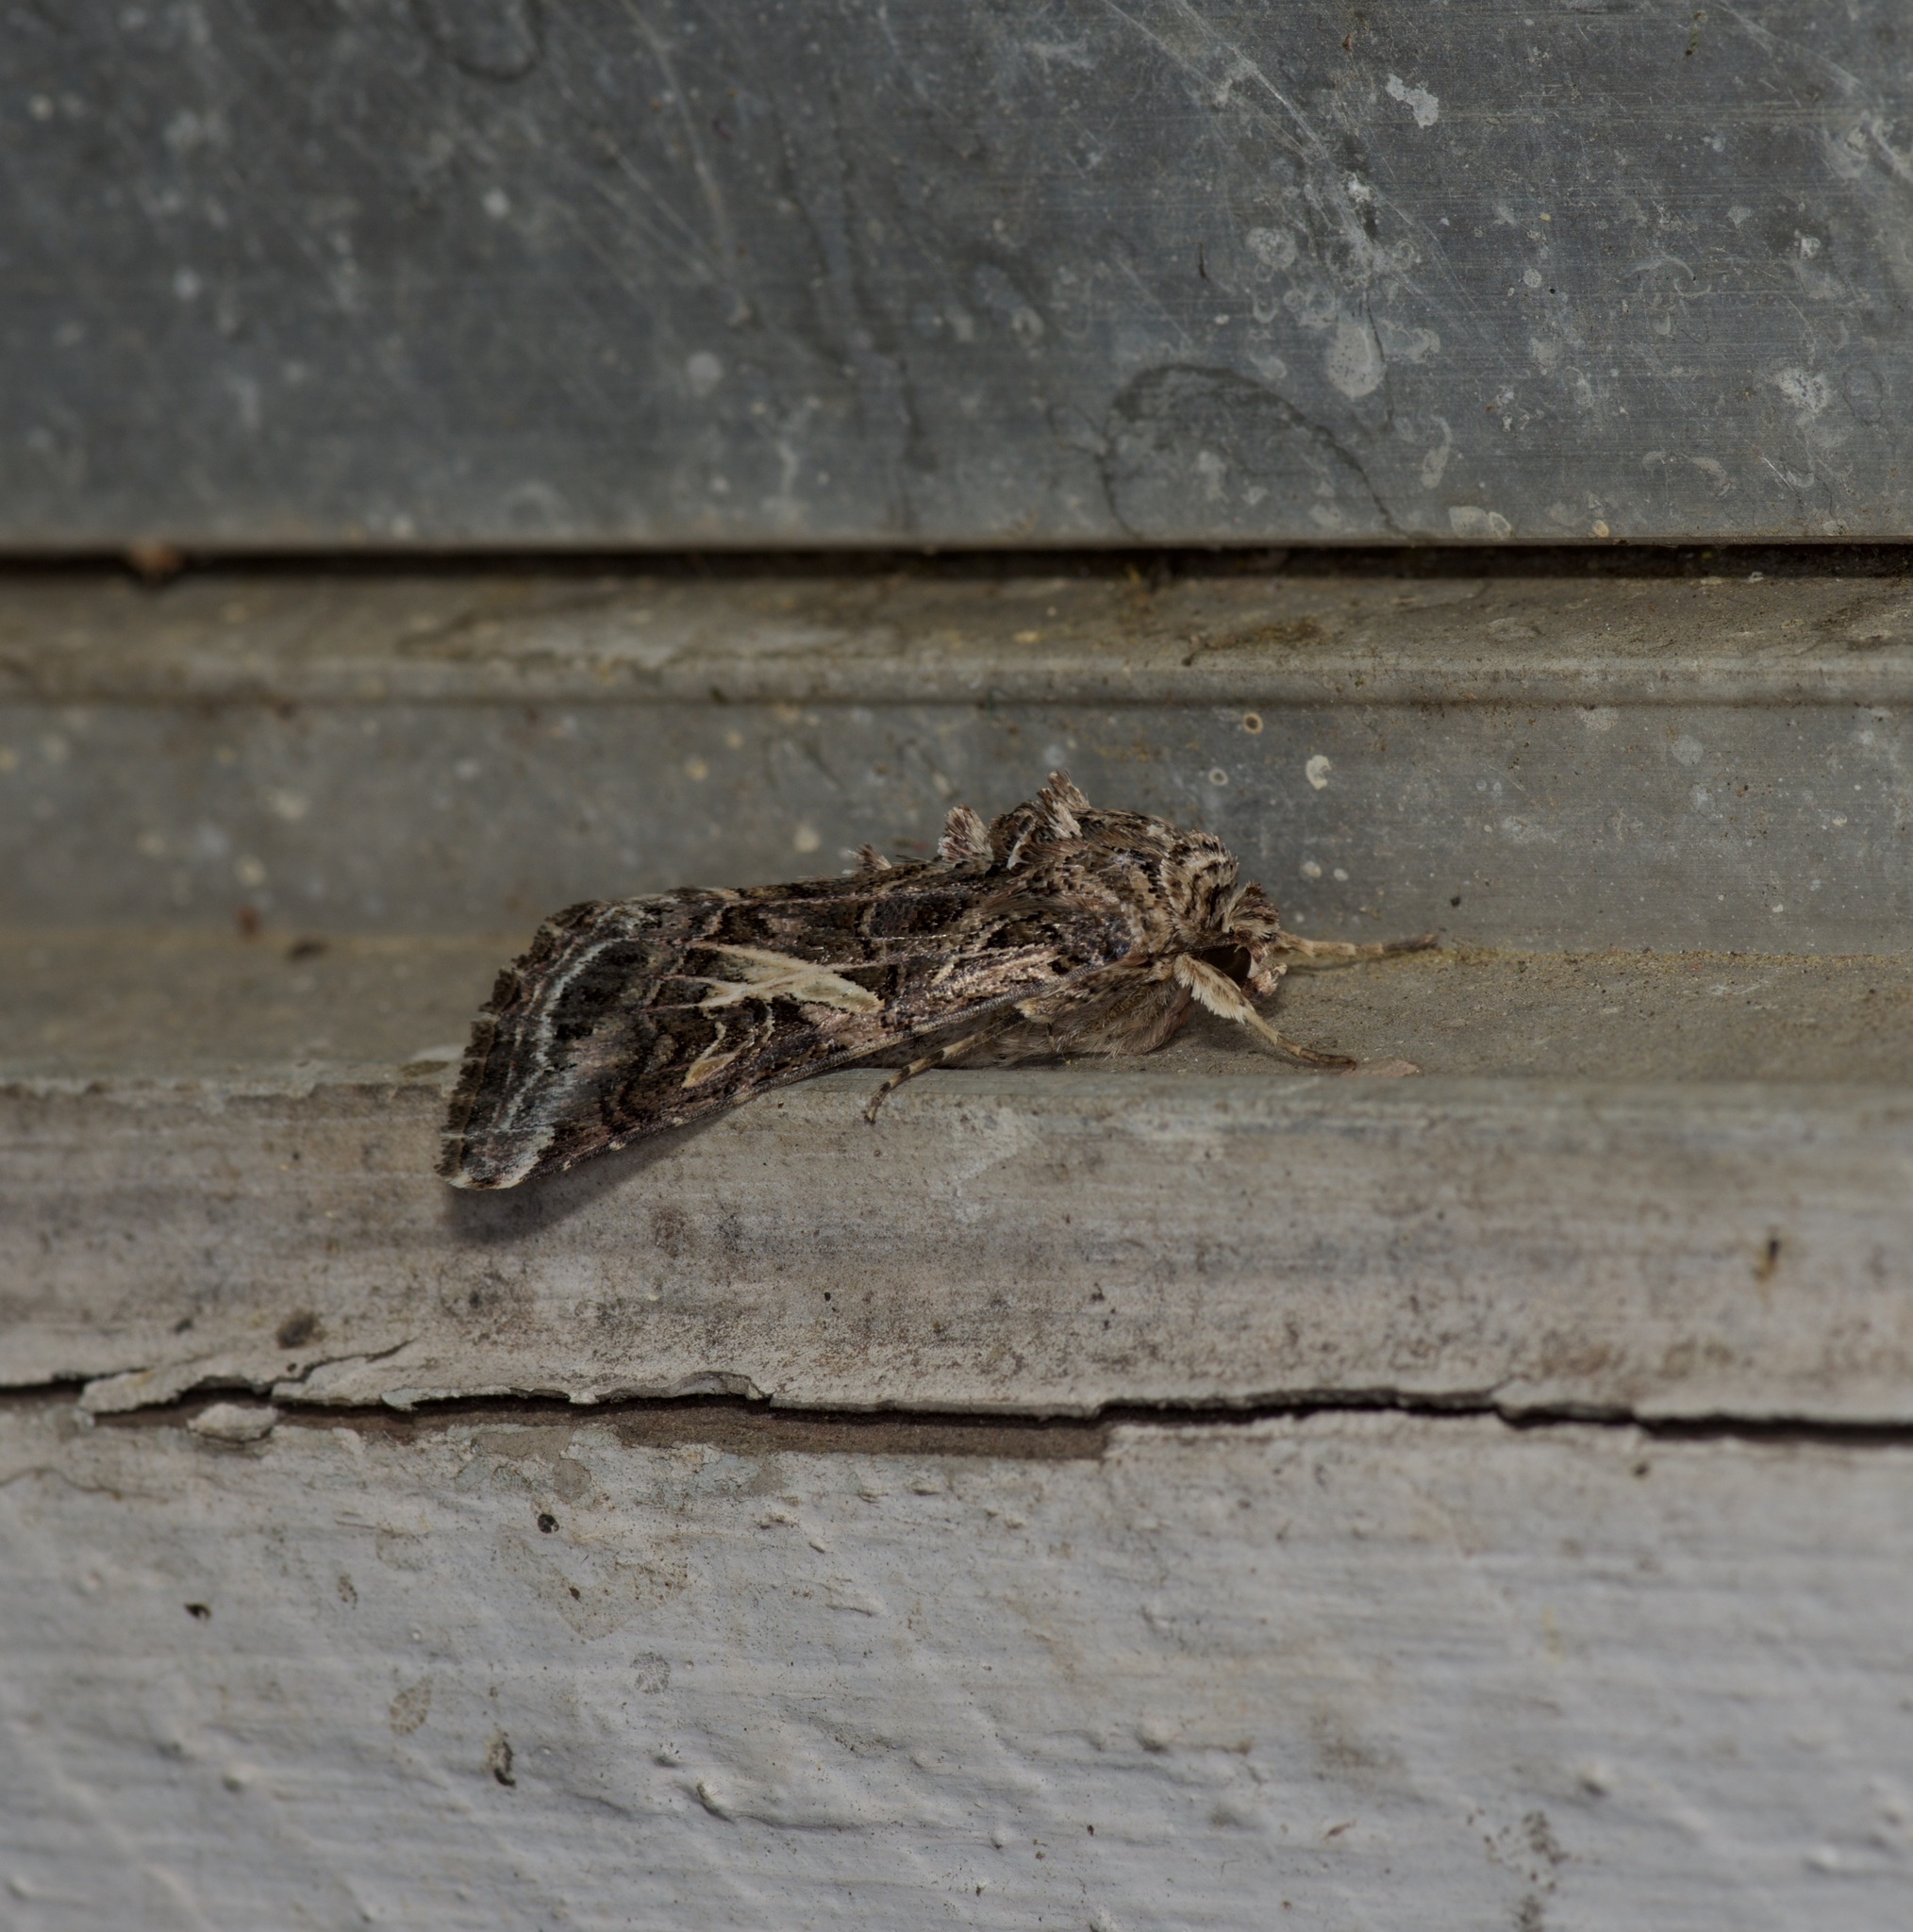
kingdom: Animalia
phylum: Arthropoda
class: Insecta
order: Lepidoptera
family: Noctuidae
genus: Spodoptera
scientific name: Spodoptera ornithogalli
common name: Yellow-striped armyworm
